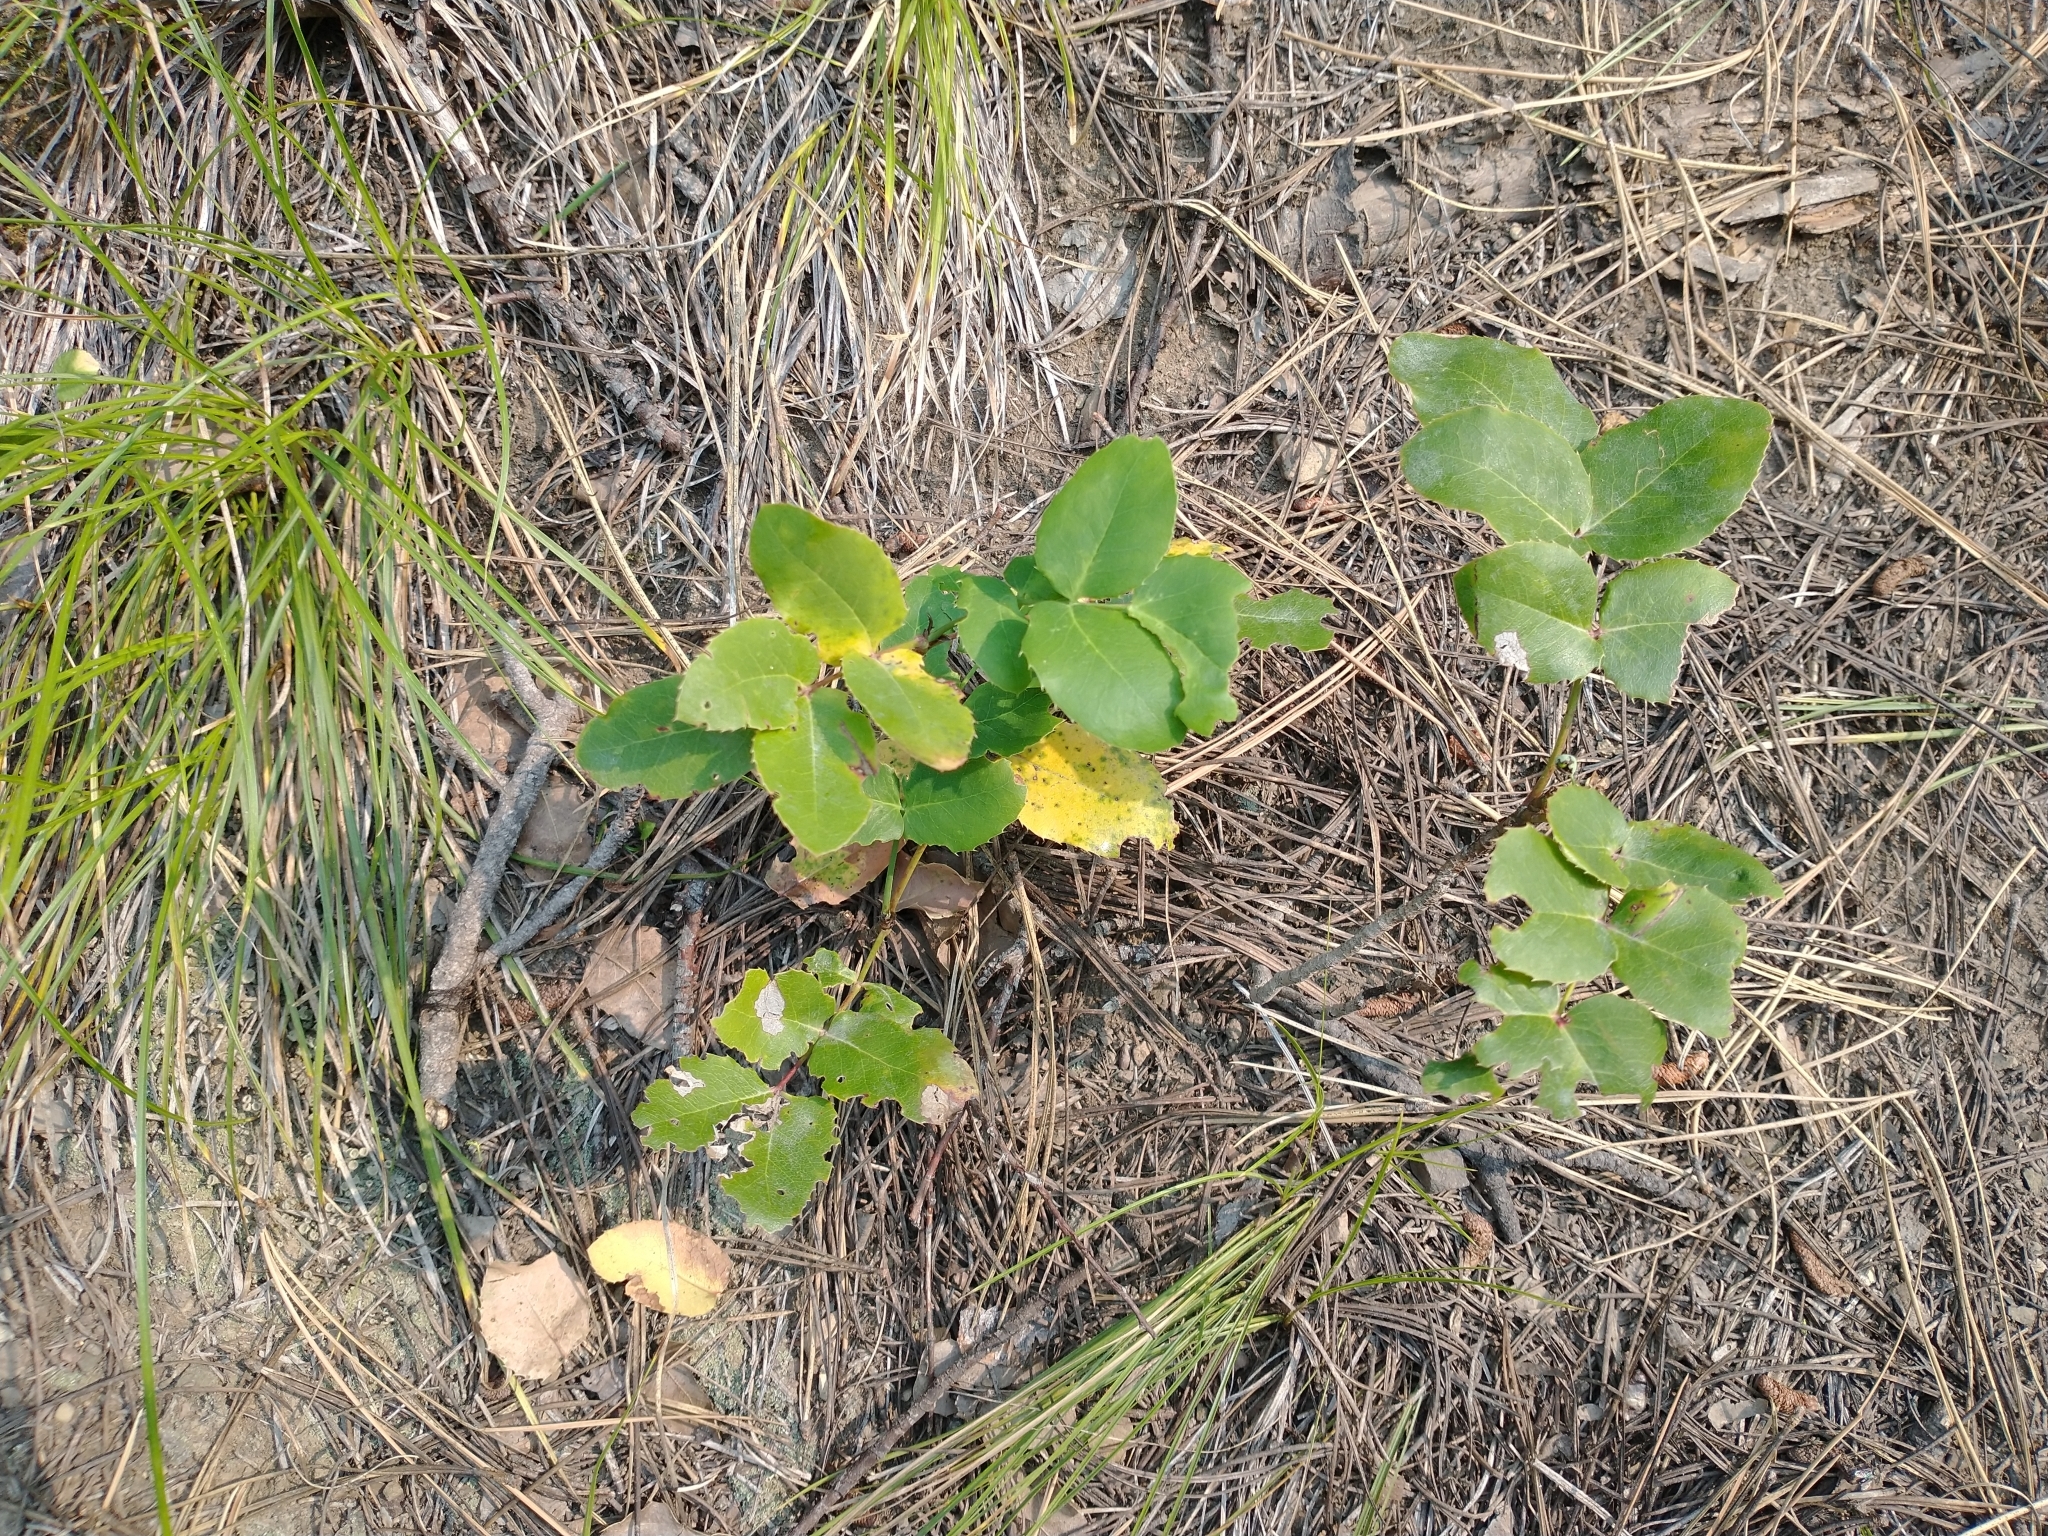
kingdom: Plantae
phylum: Tracheophyta
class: Magnoliopsida
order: Ranunculales
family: Berberidaceae
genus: Mahonia
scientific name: Mahonia repens
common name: Creeping oregon-grape
